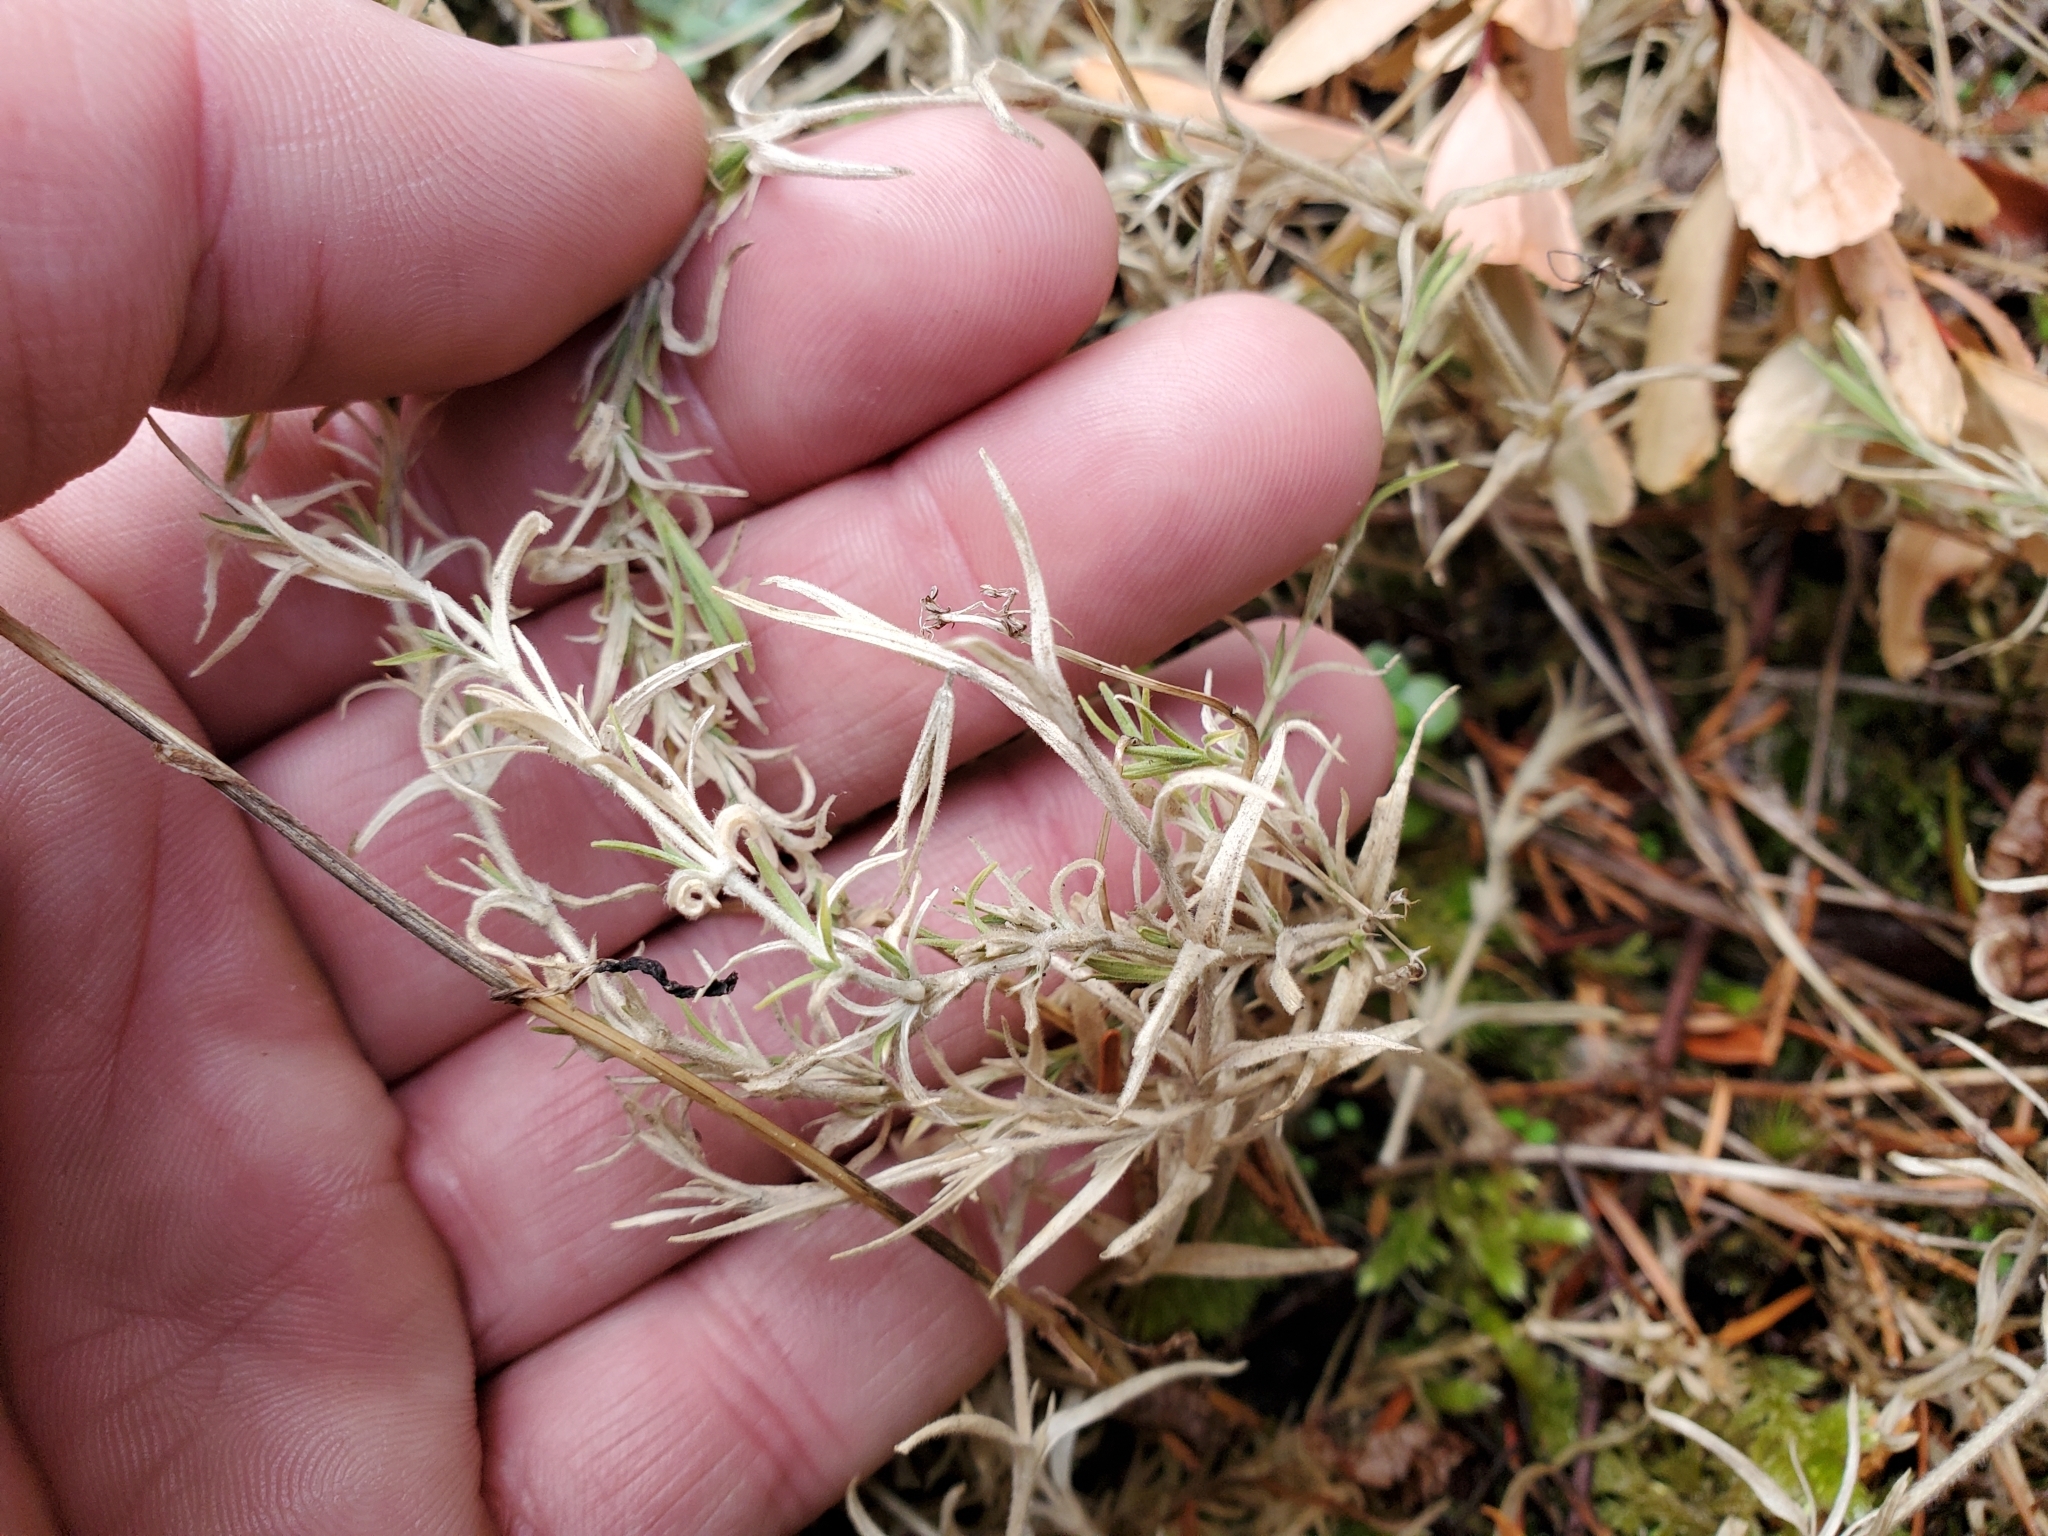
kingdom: Plantae
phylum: Tracheophyta
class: Magnoliopsida
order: Caryophyllales
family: Caryophyllaceae
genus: Cerastium
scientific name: Cerastium arvense
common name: Field mouse-ear
